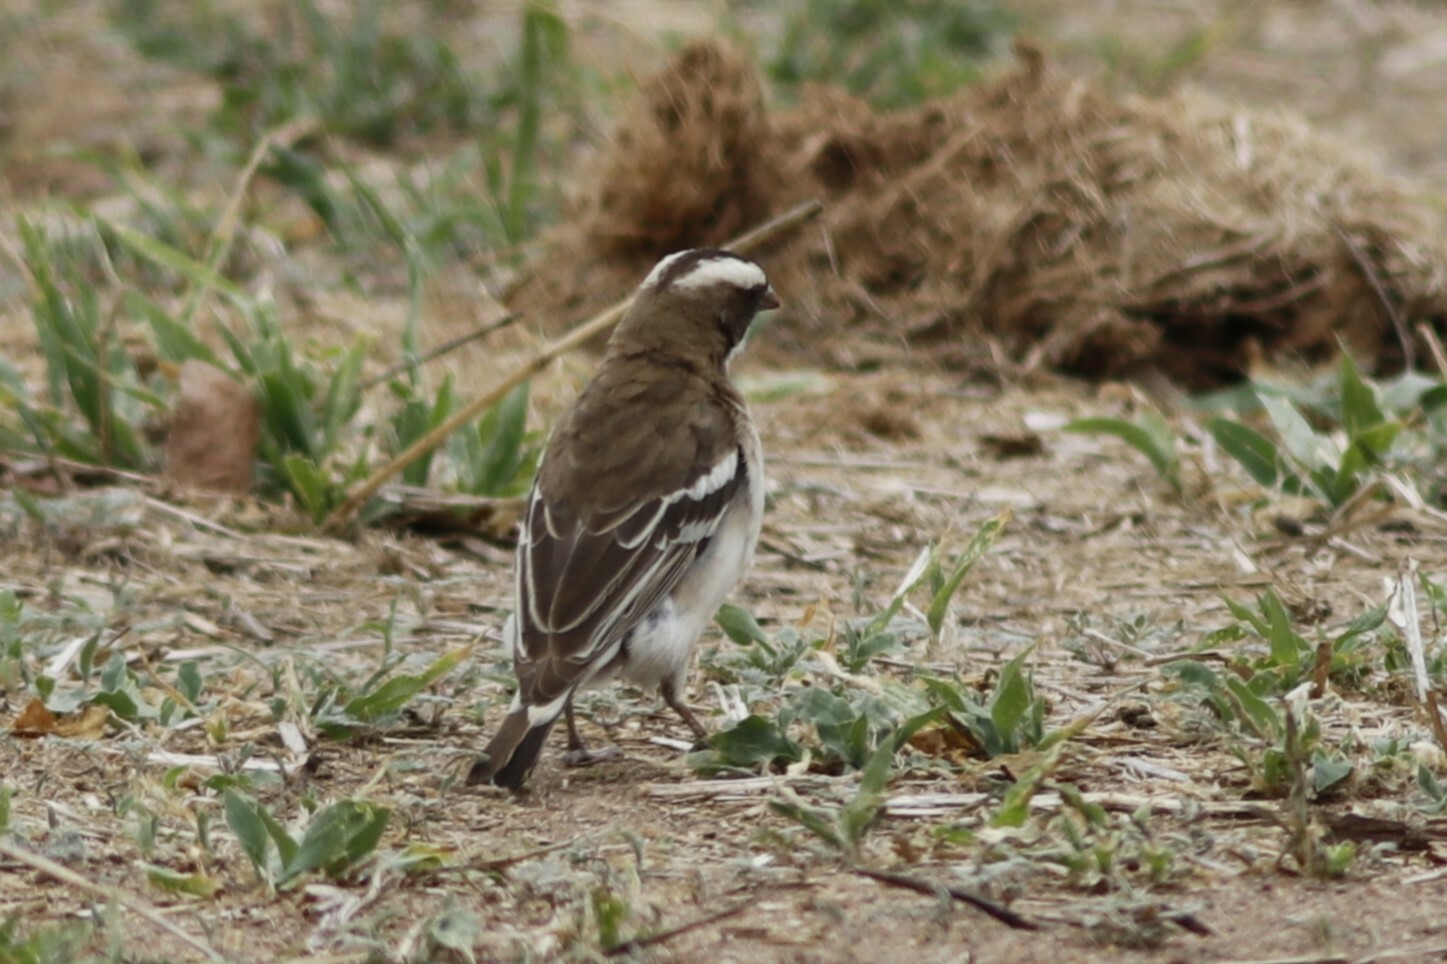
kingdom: Animalia
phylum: Chordata
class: Aves
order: Passeriformes
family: Passeridae
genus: Plocepasser
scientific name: Plocepasser mahali
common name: White-browed sparrow-weaver
